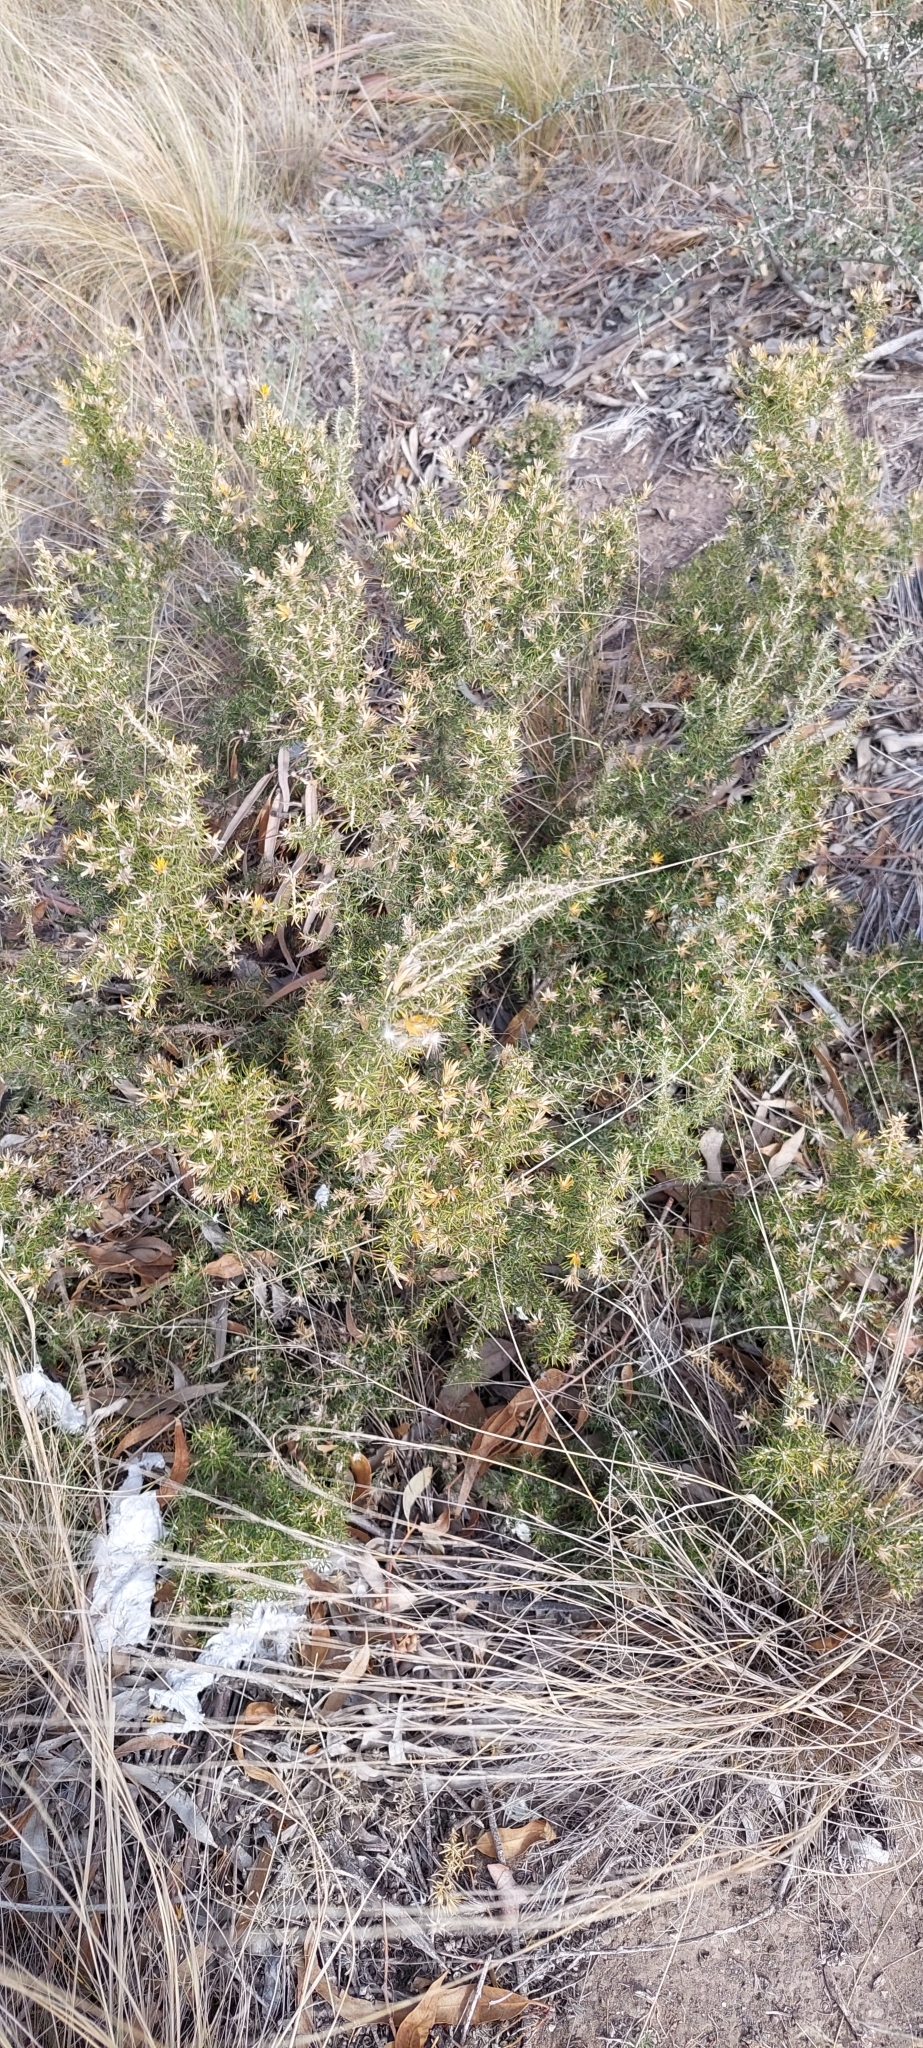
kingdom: Plantae
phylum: Tracheophyta
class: Magnoliopsida
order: Asterales
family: Asteraceae
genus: Chuquiraga
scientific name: Chuquiraga erinacea
